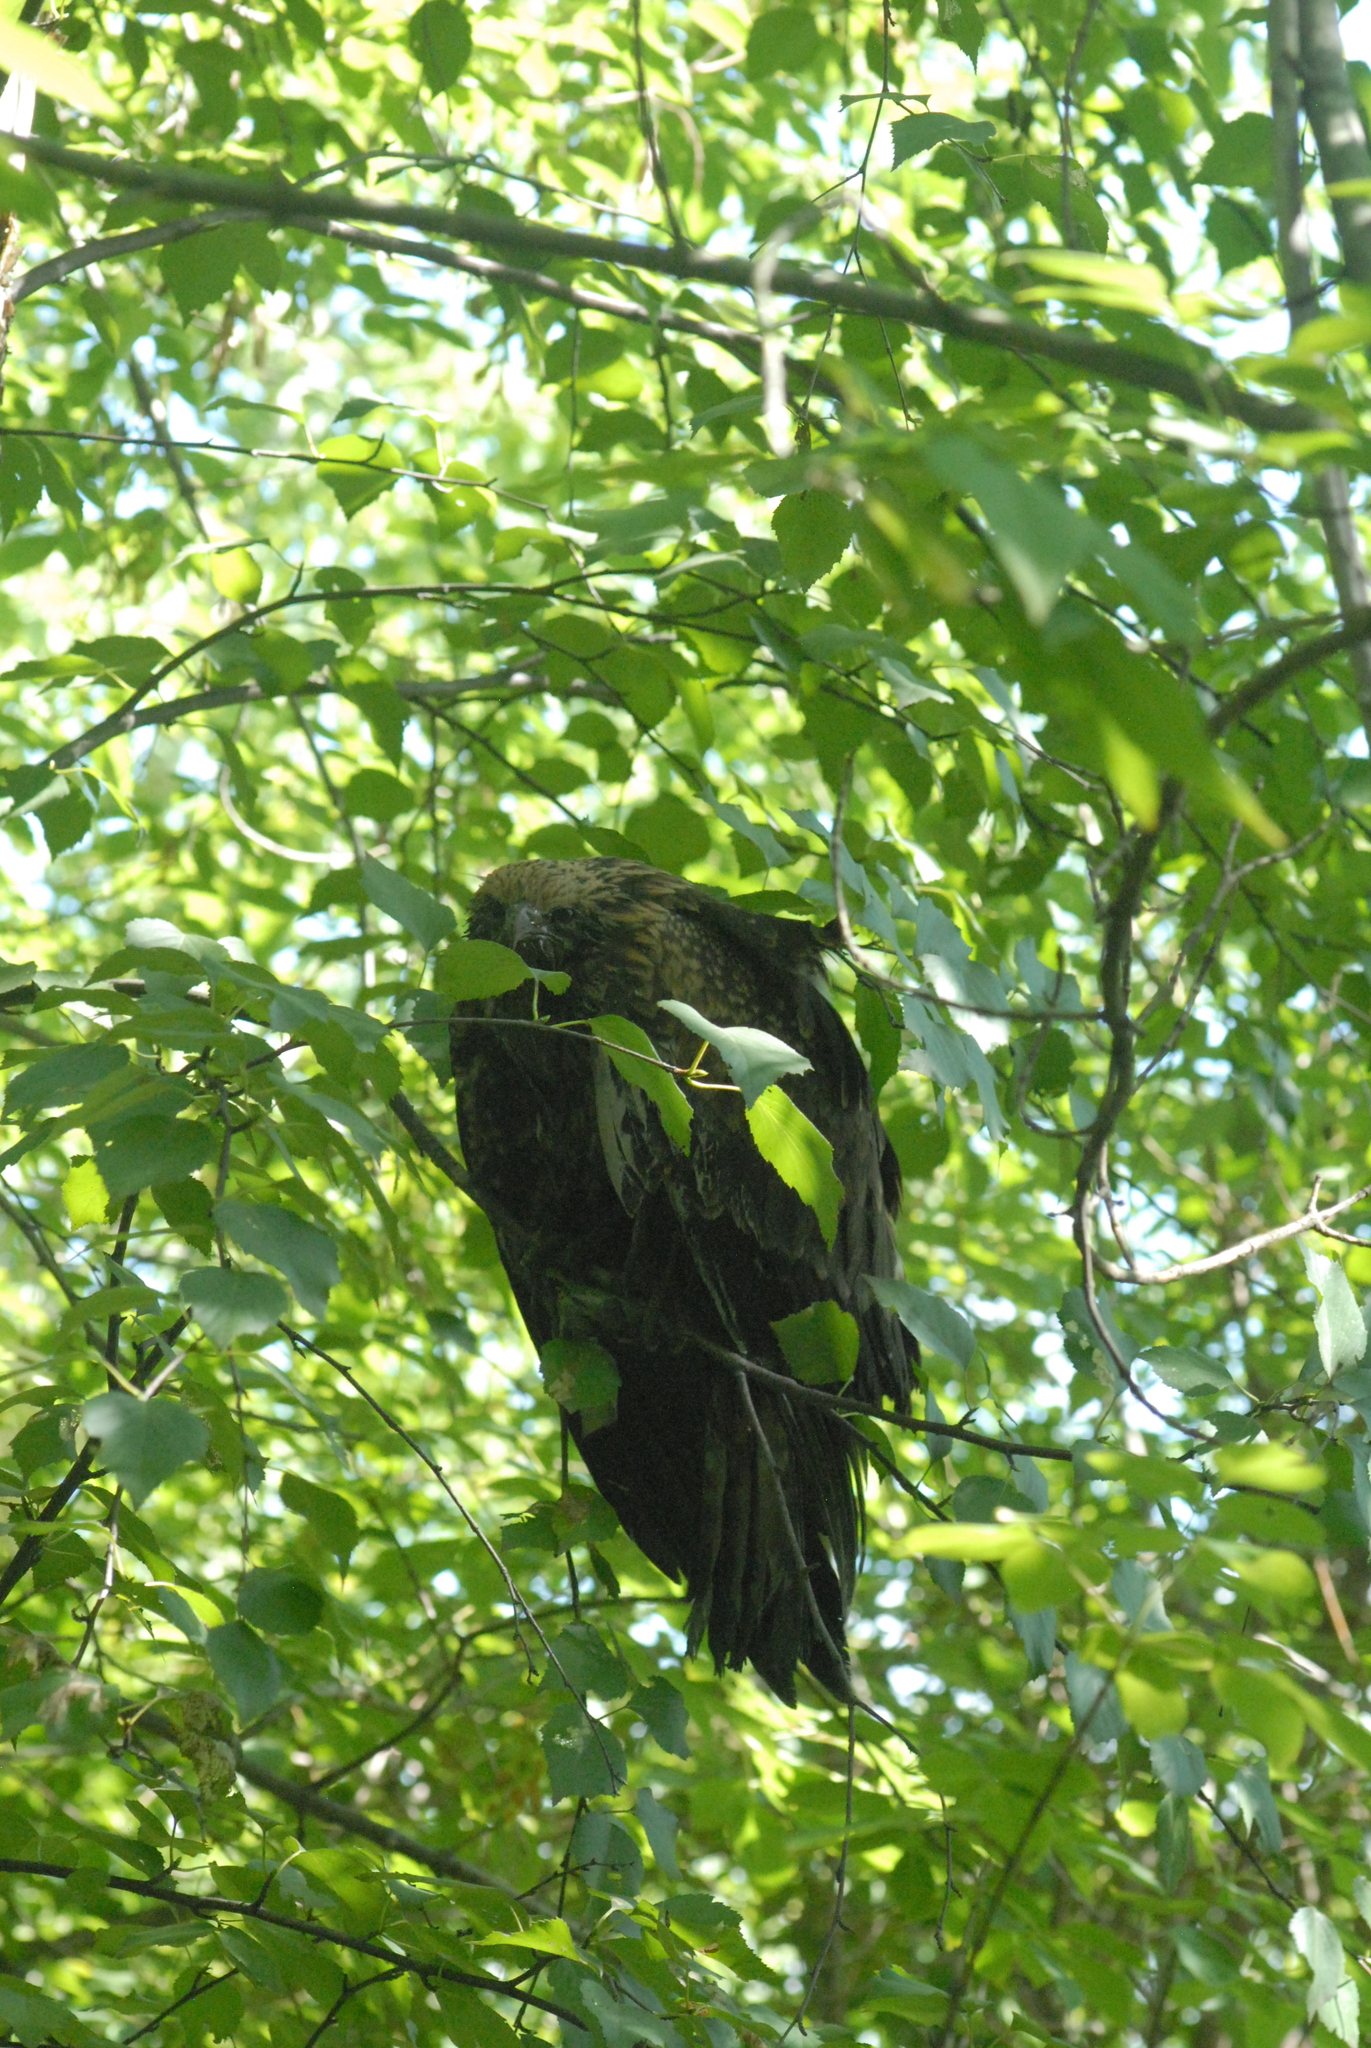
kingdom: Animalia
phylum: Chordata
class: Aves
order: Accipitriformes
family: Accipitridae
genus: Milvus
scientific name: Milvus migrans
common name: Black kite
